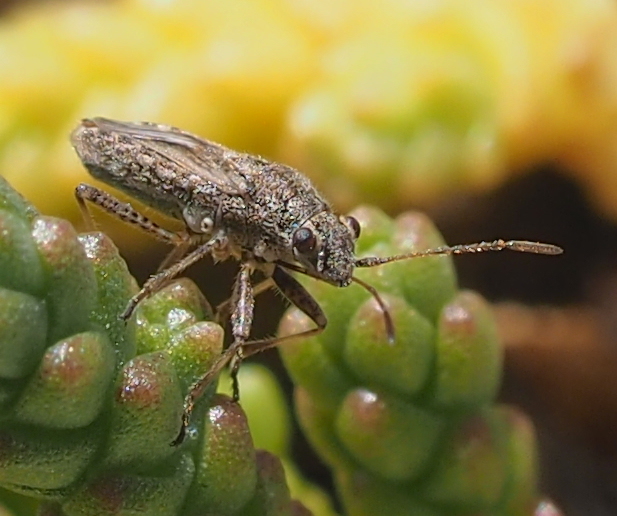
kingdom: Animalia
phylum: Arthropoda
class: Insecta
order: Hemiptera
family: Lygaeidae
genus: Ortholomus
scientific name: Ortholomus punctipennis
